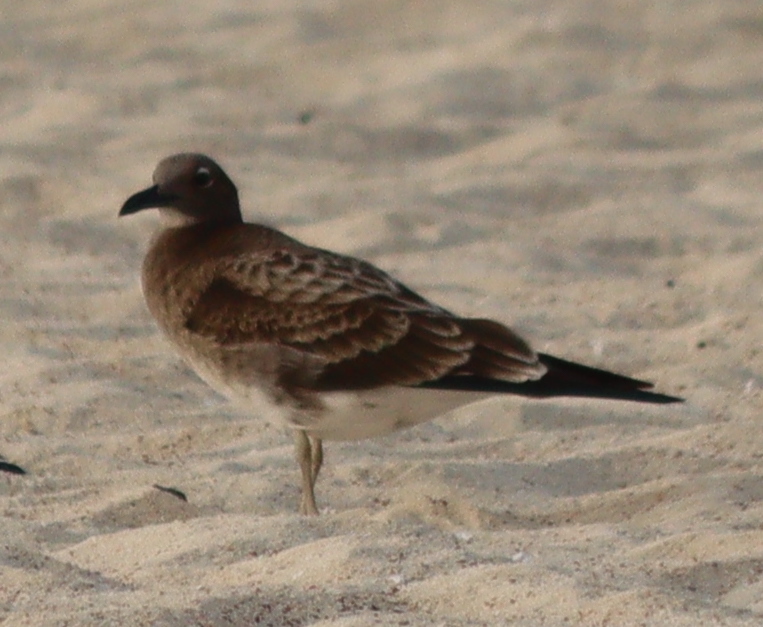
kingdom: Animalia
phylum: Chordata
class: Aves
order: Charadriiformes
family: Laridae
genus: Ichthyaetus
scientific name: Ichthyaetus hemprichii
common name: Sooty gull
